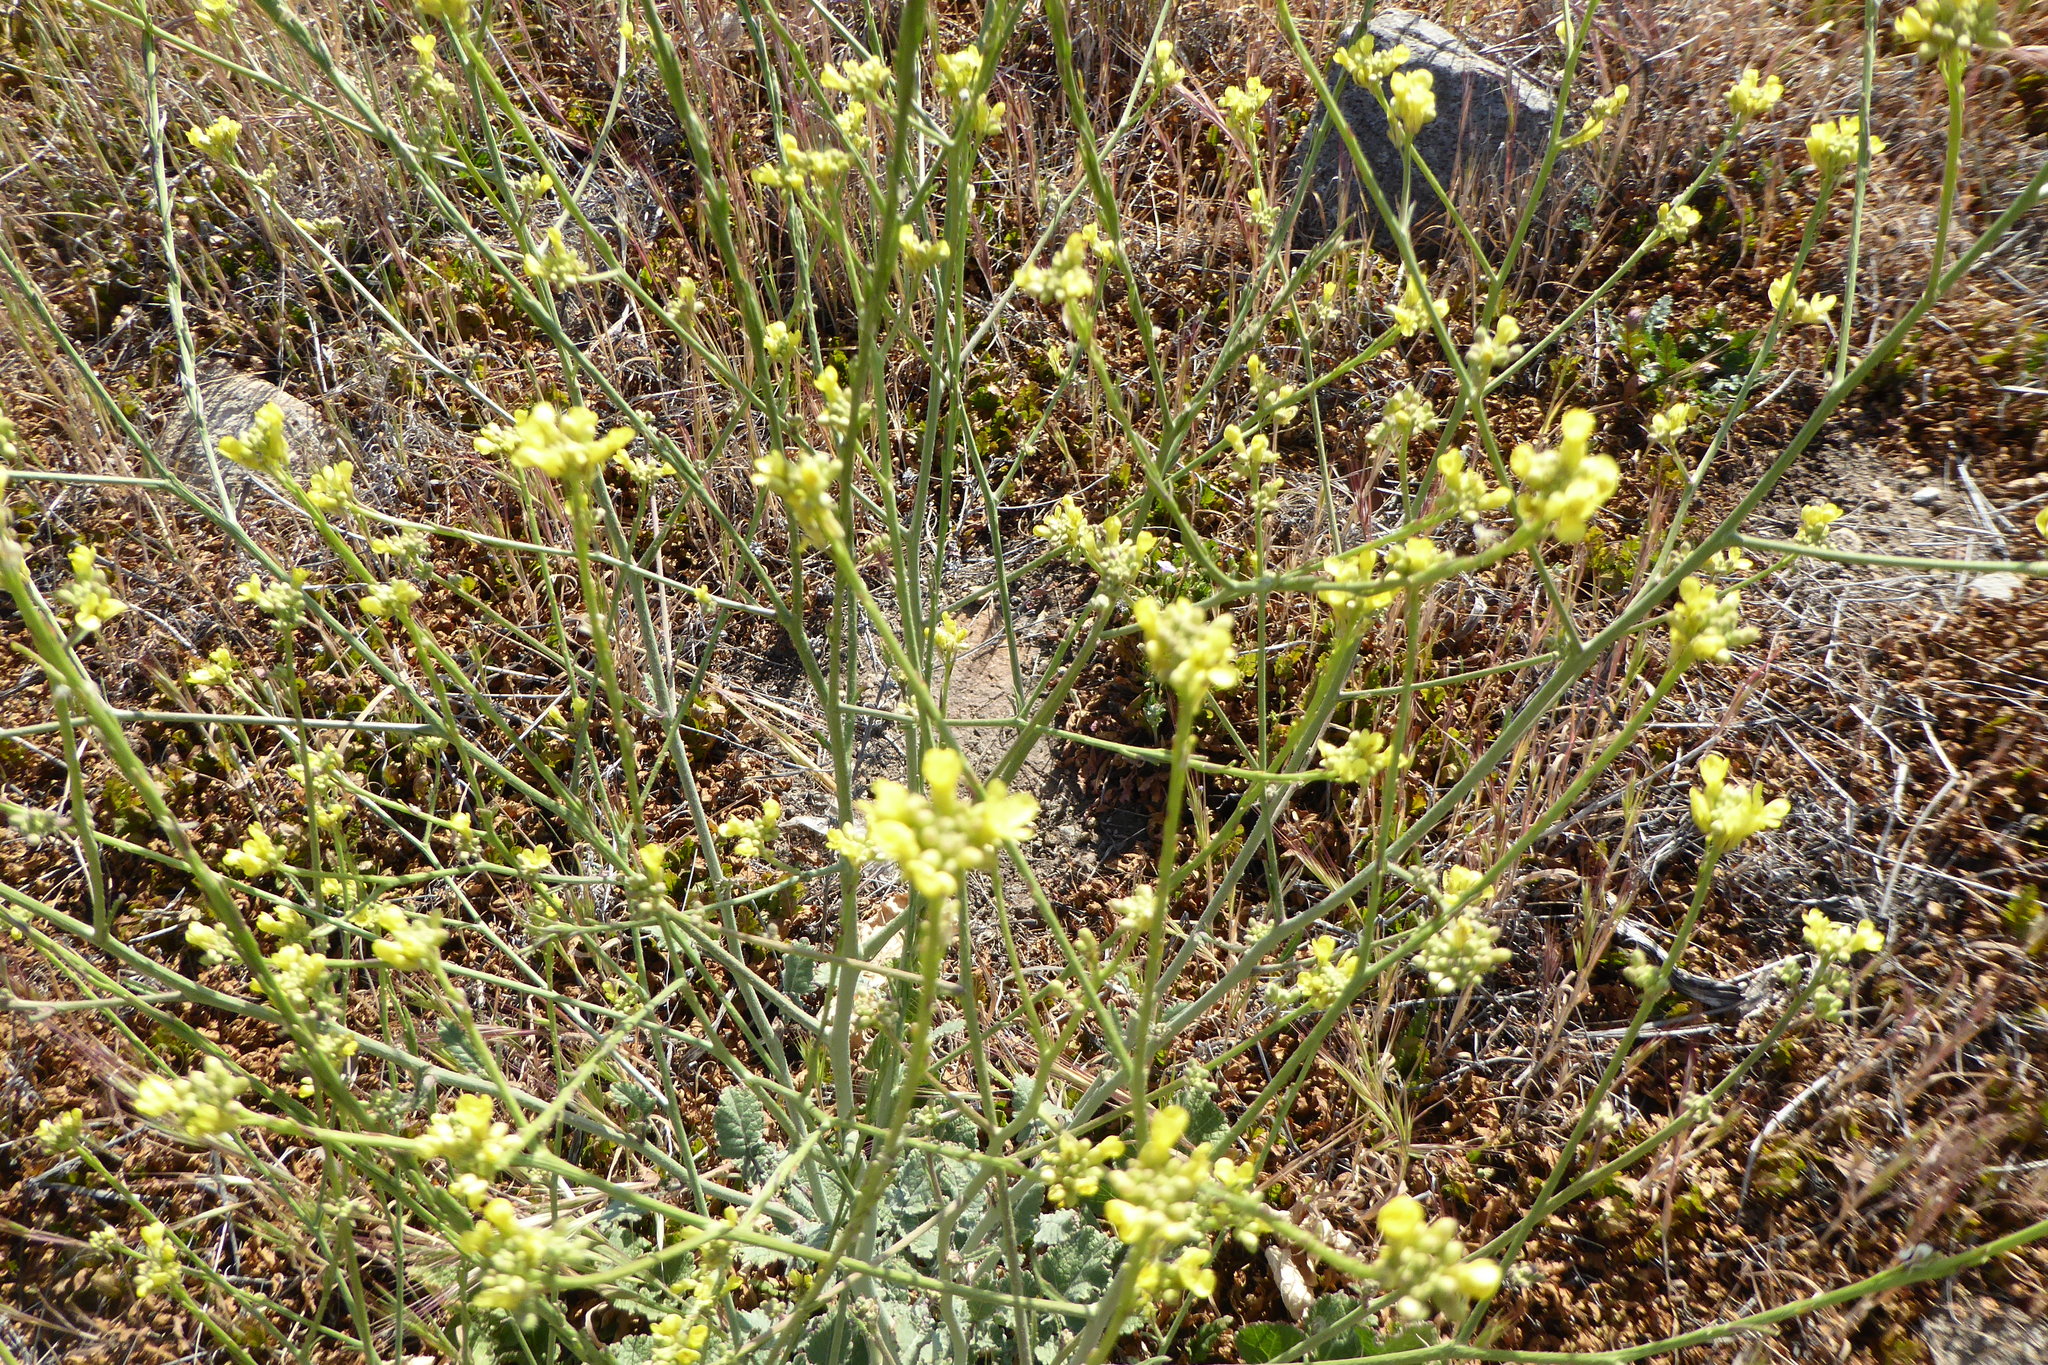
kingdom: Plantae
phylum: Tracheophyta
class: Magnoliopsida
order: Brassicales
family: Brassicaceae
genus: Hirschfeldia
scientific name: Hirschfeldia incana
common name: Hoary mustard
